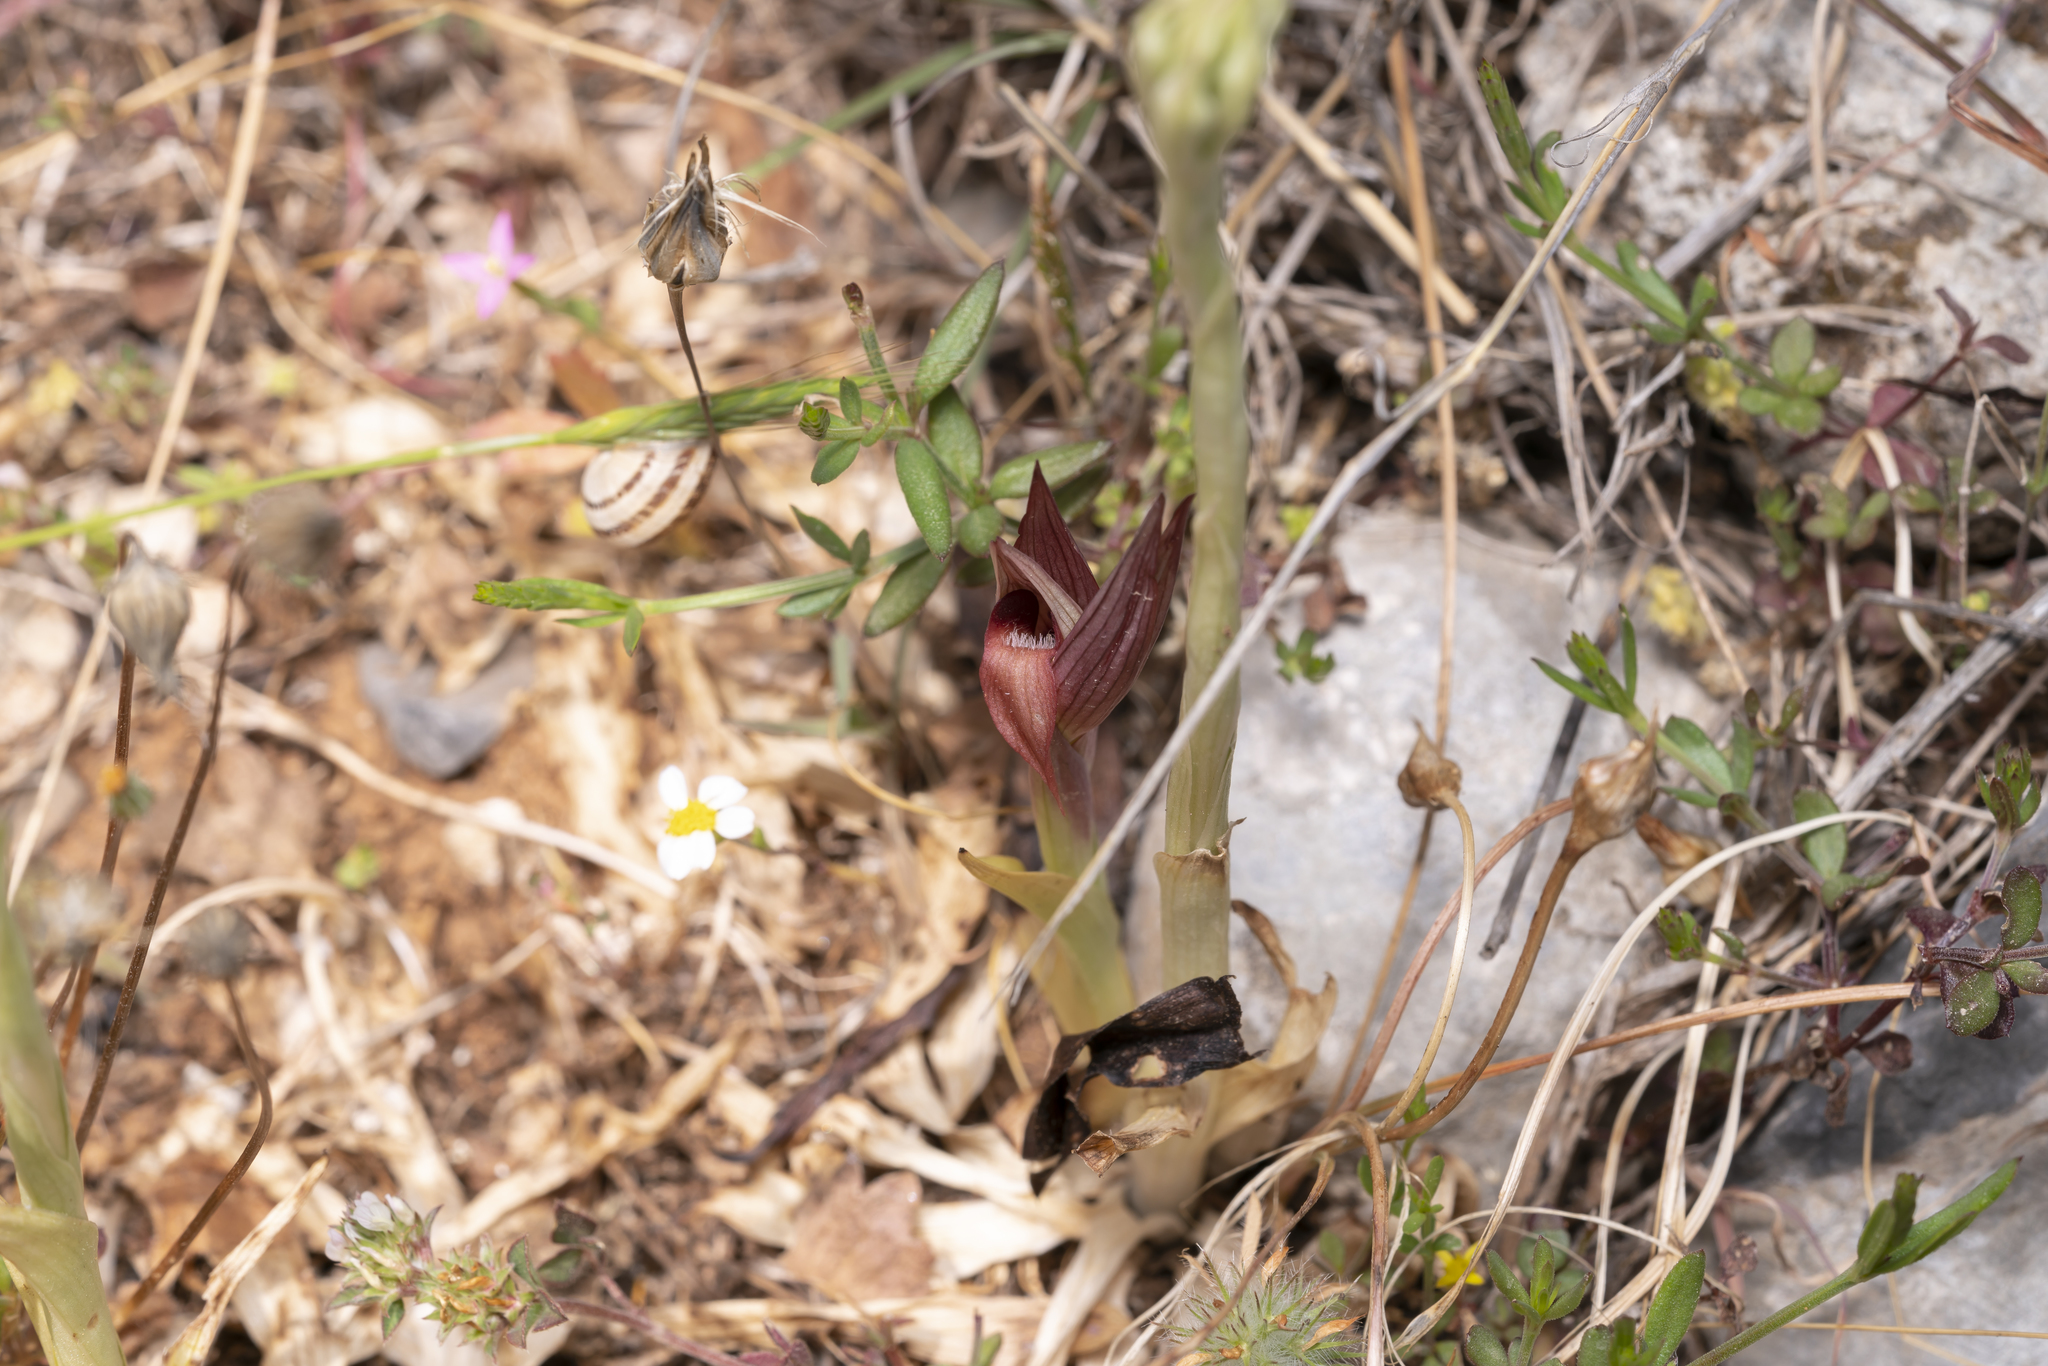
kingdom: Plantae
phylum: Tracheophyta
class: Liliopsida
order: Asparagales
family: Orchidaceae
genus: Serapias
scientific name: Serapias orientalis
